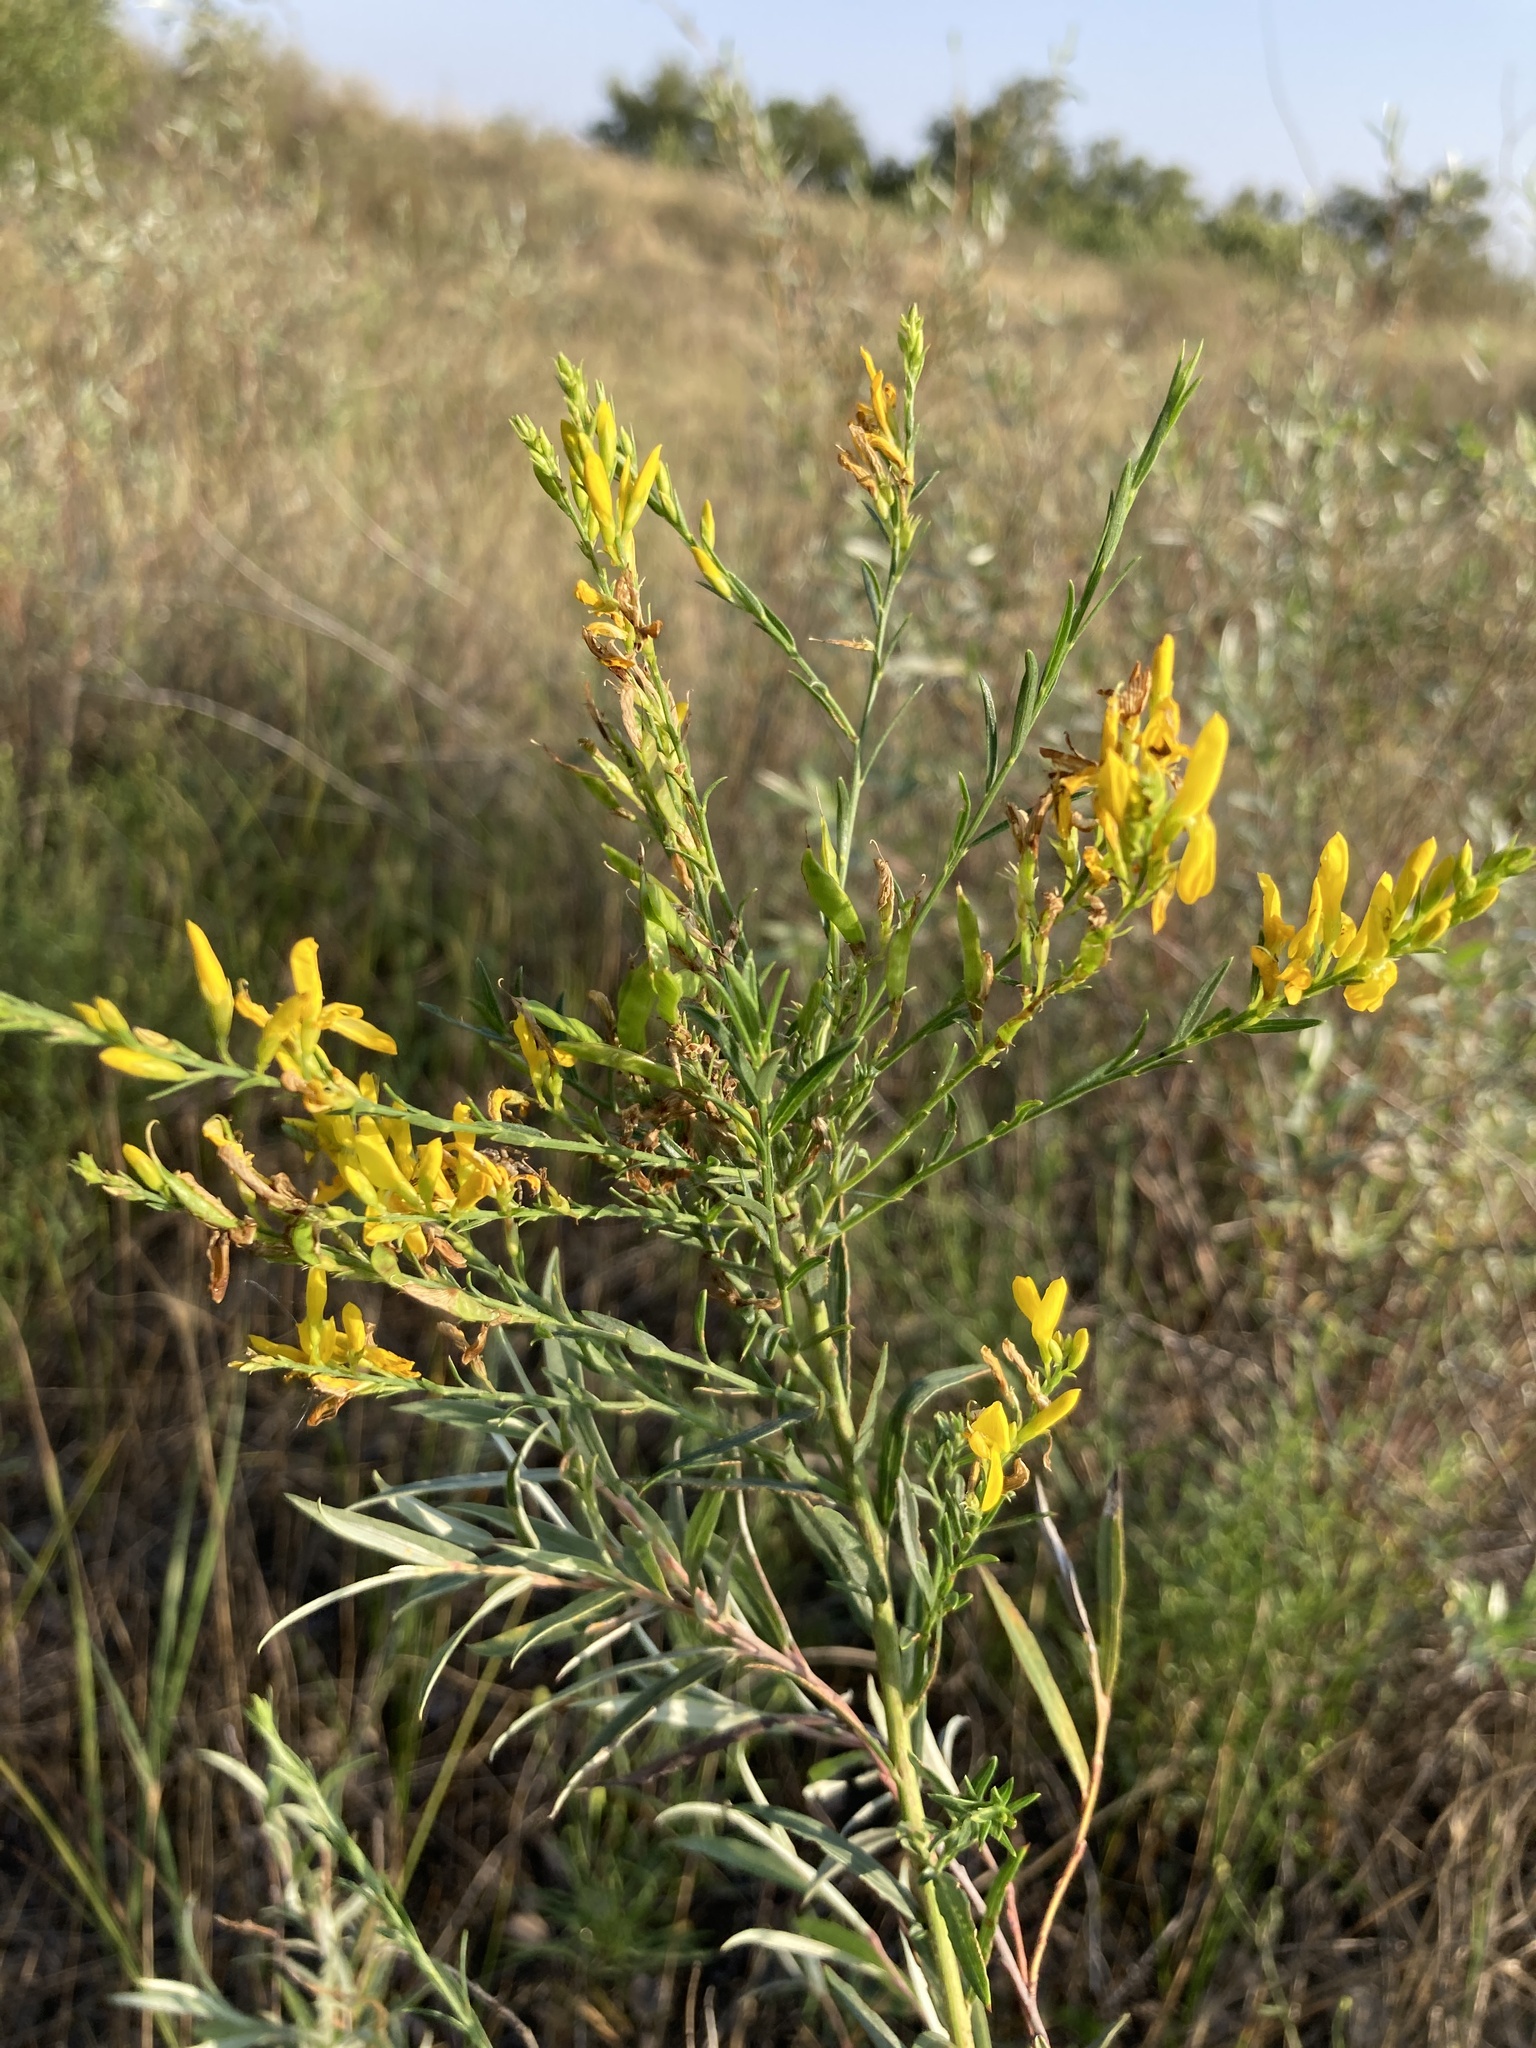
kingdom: Plantae
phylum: Tracheophyta
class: Magnoliopsida
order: Fabales
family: Fabaceae
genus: Genista
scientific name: Genista tinctoria
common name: Dyer's greenweed
